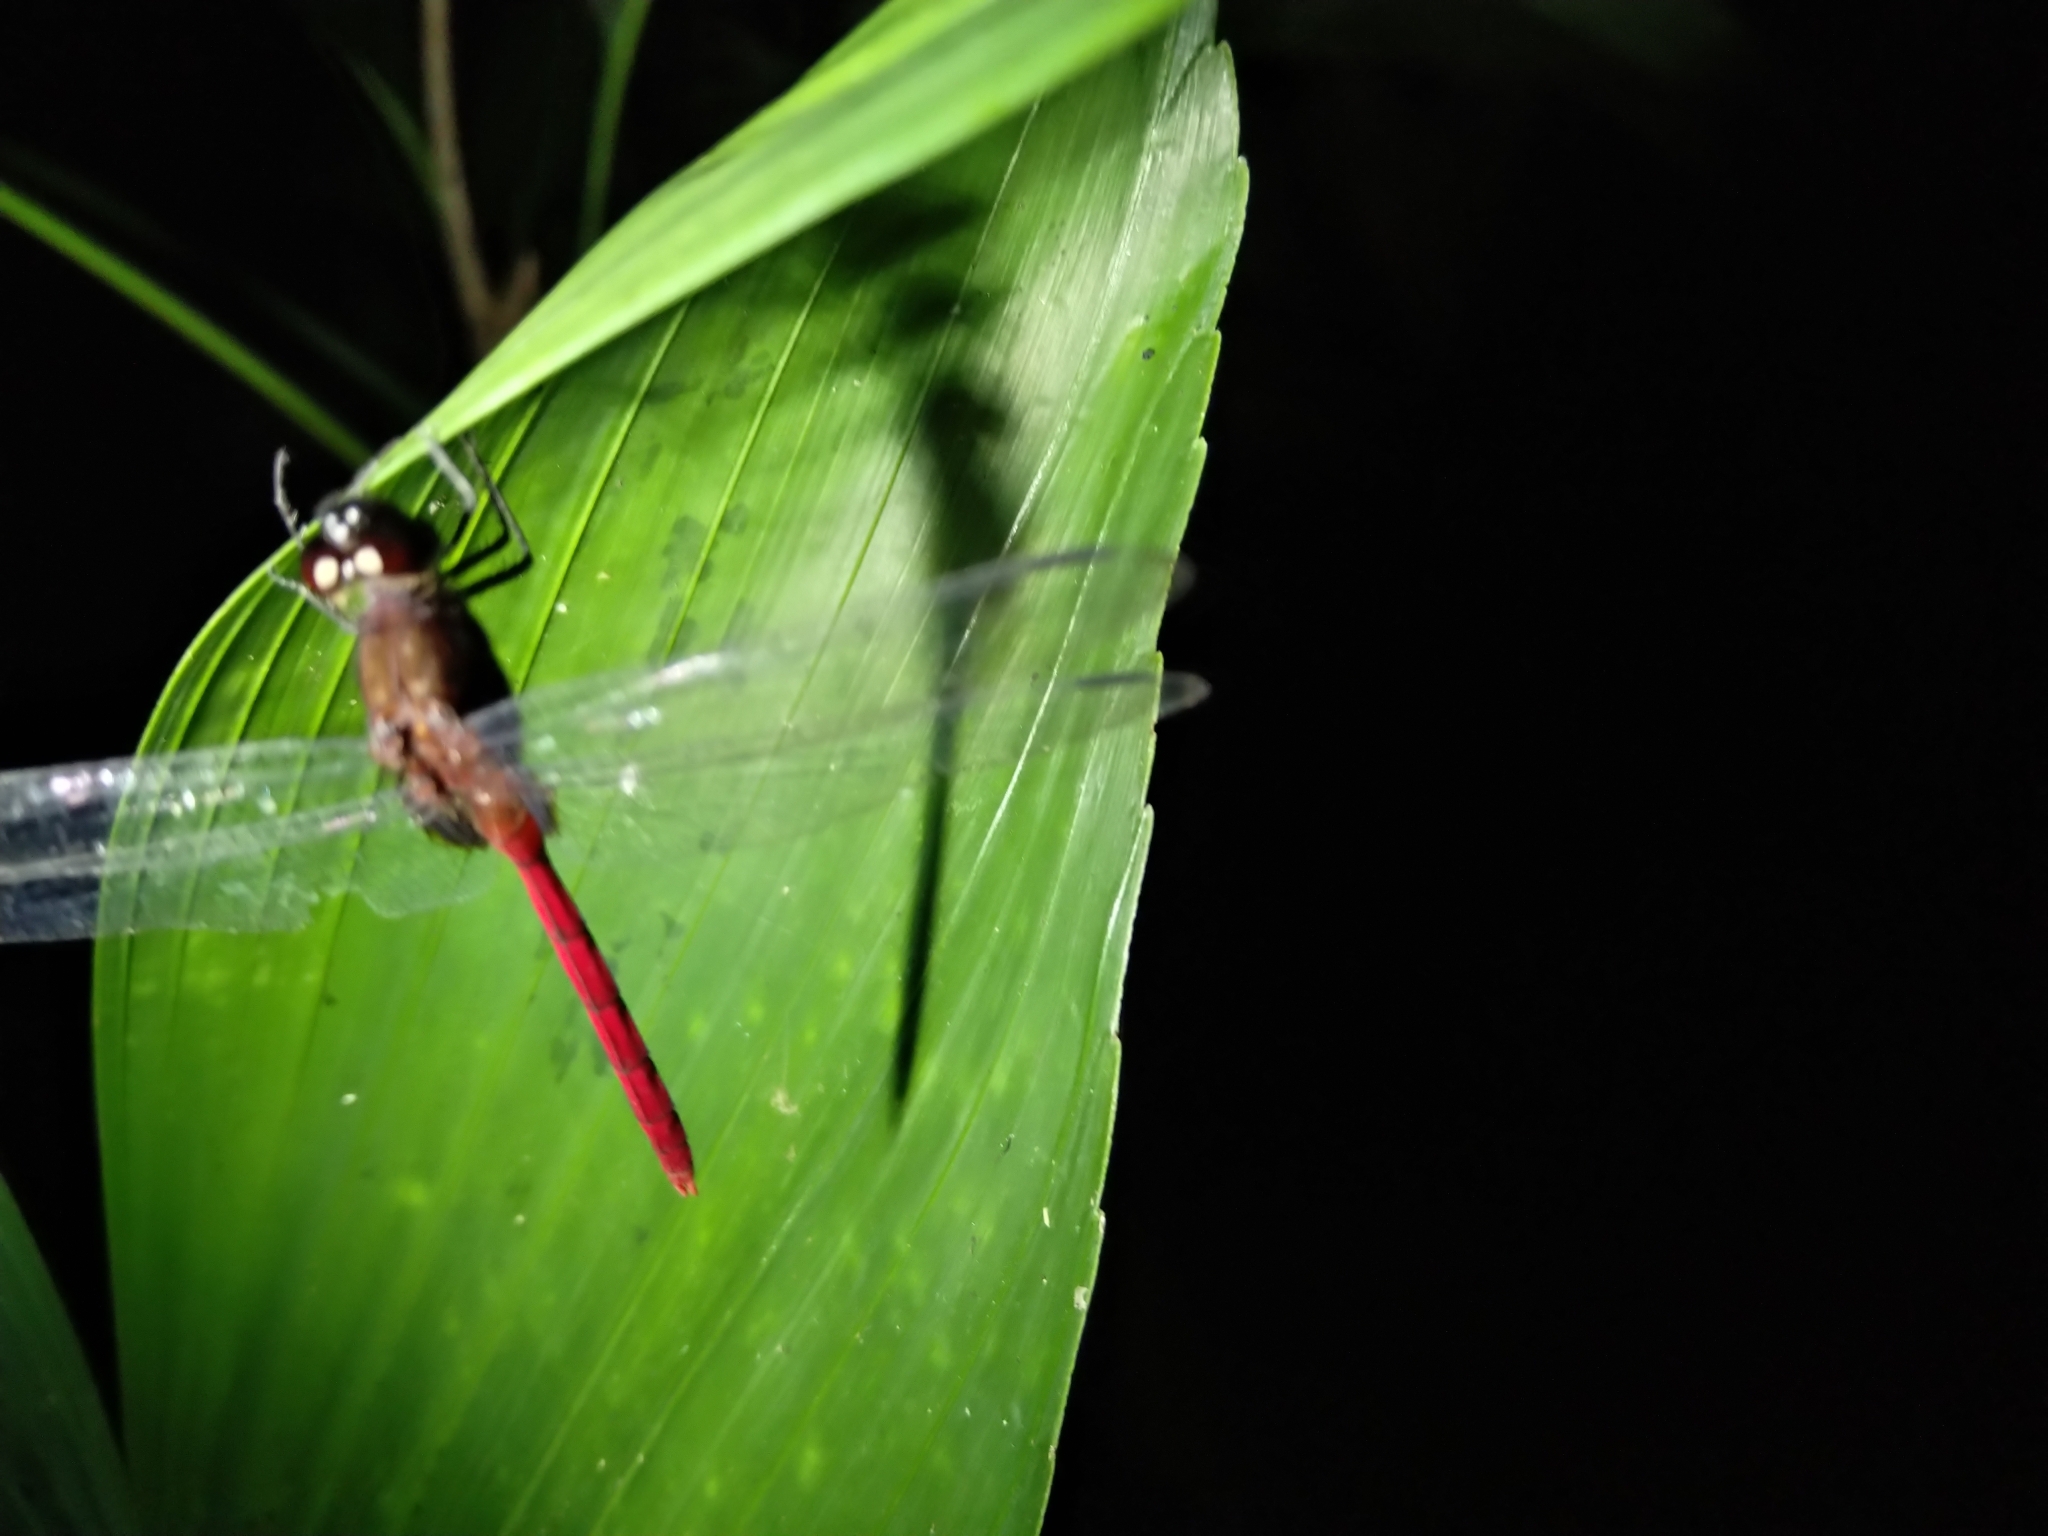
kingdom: Animalia
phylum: Arthropoda
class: Insecta
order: Odonata
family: Libellulidae
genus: Erythemis
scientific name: Erythemis haematogastra
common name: Red pondhawk
